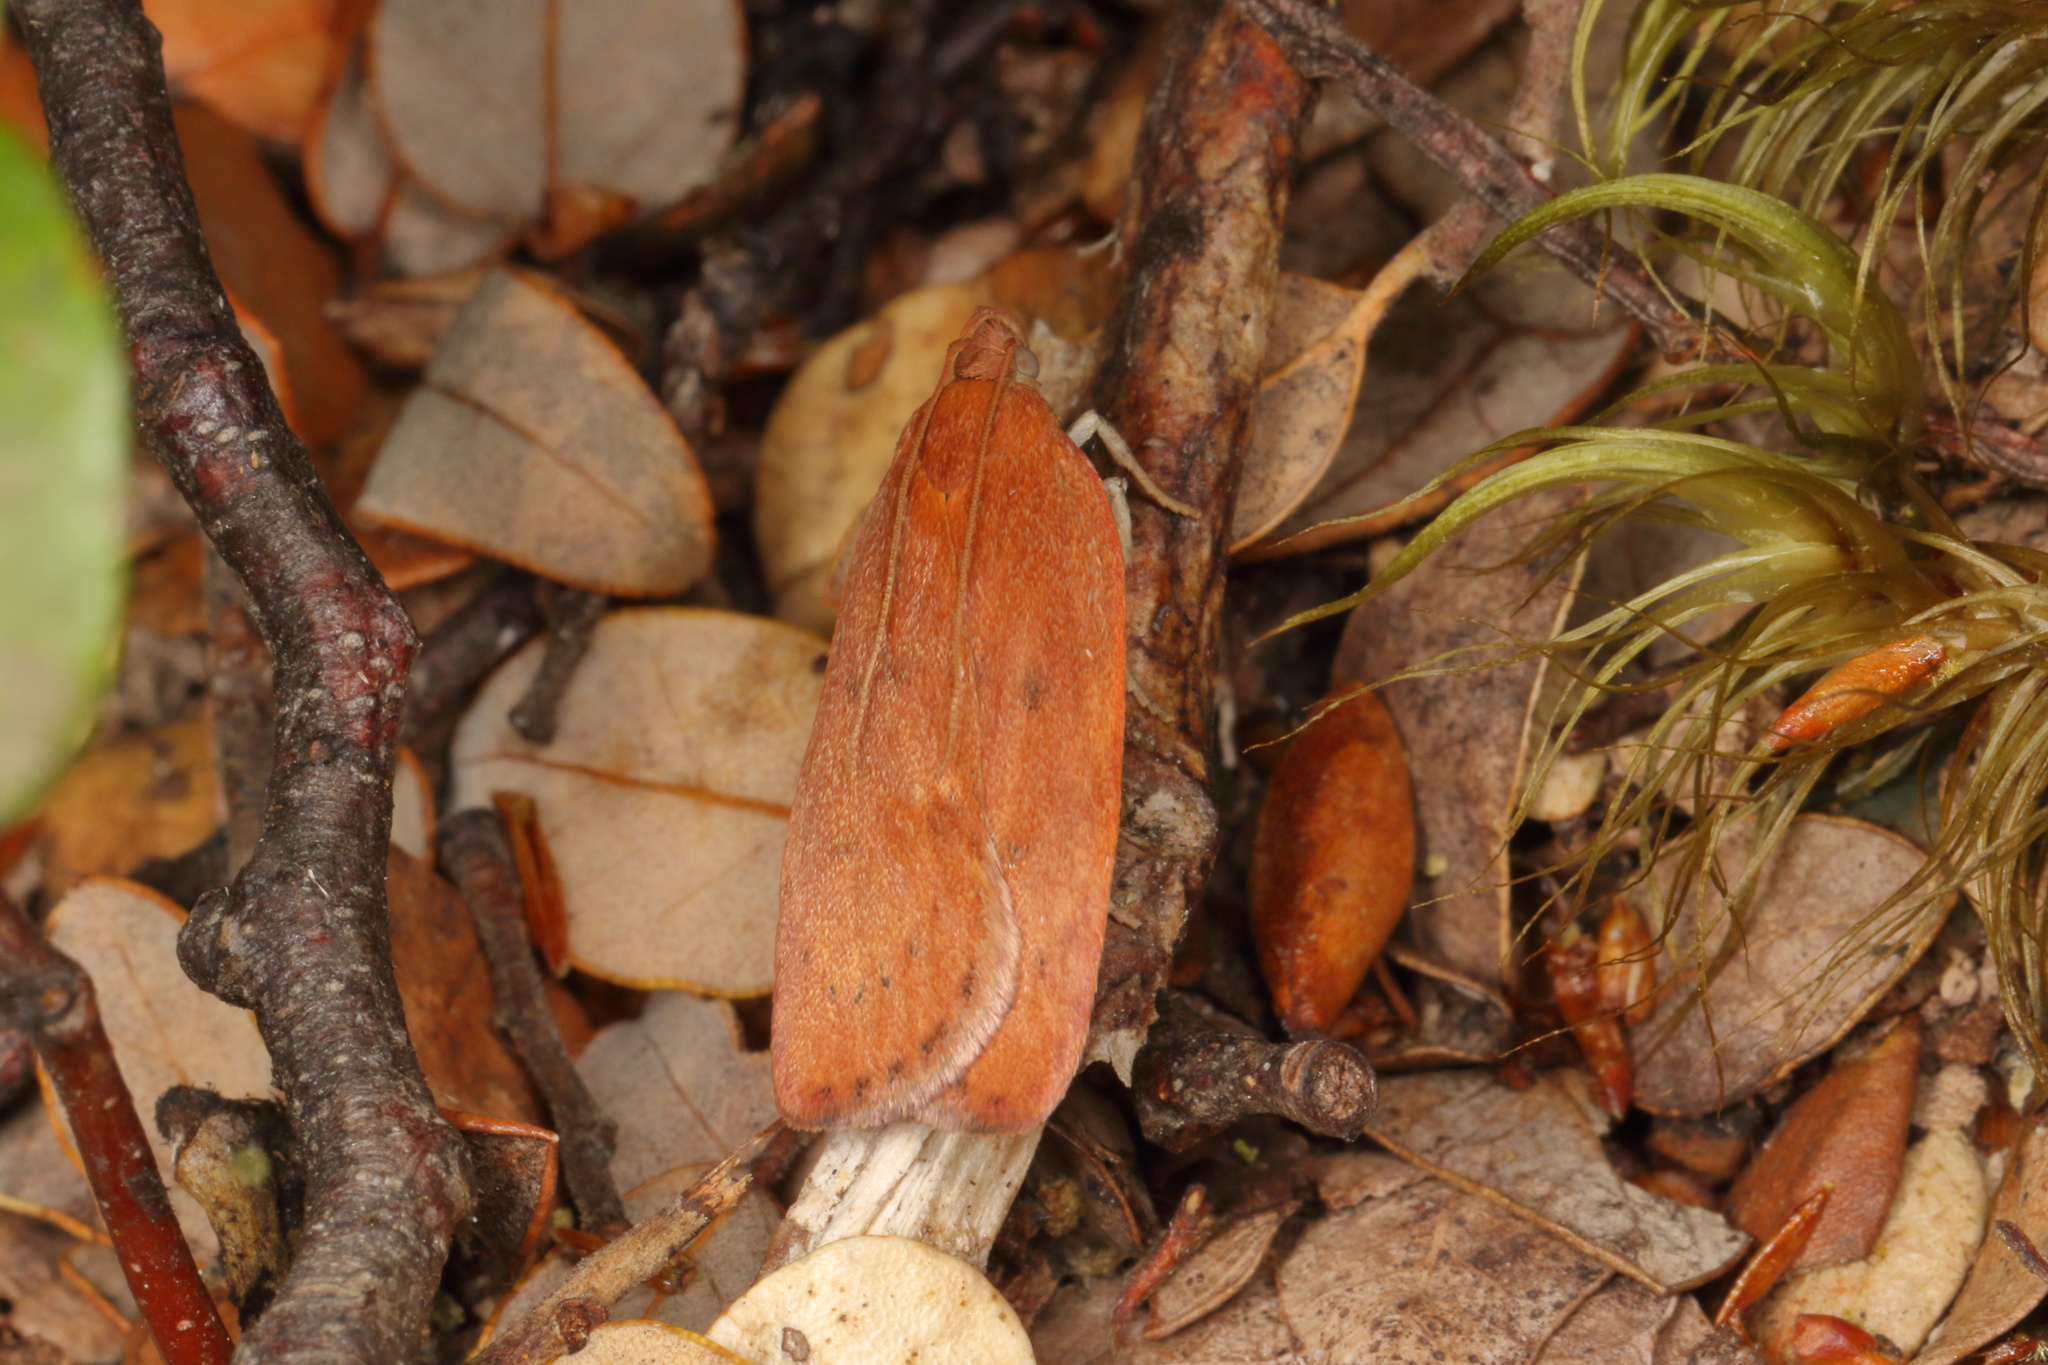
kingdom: Animalia
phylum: Arthropoda
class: Insecta
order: Lepidoptera
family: Depressariidae
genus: Phaeosaces
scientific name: Phaeosaces coarctatella
